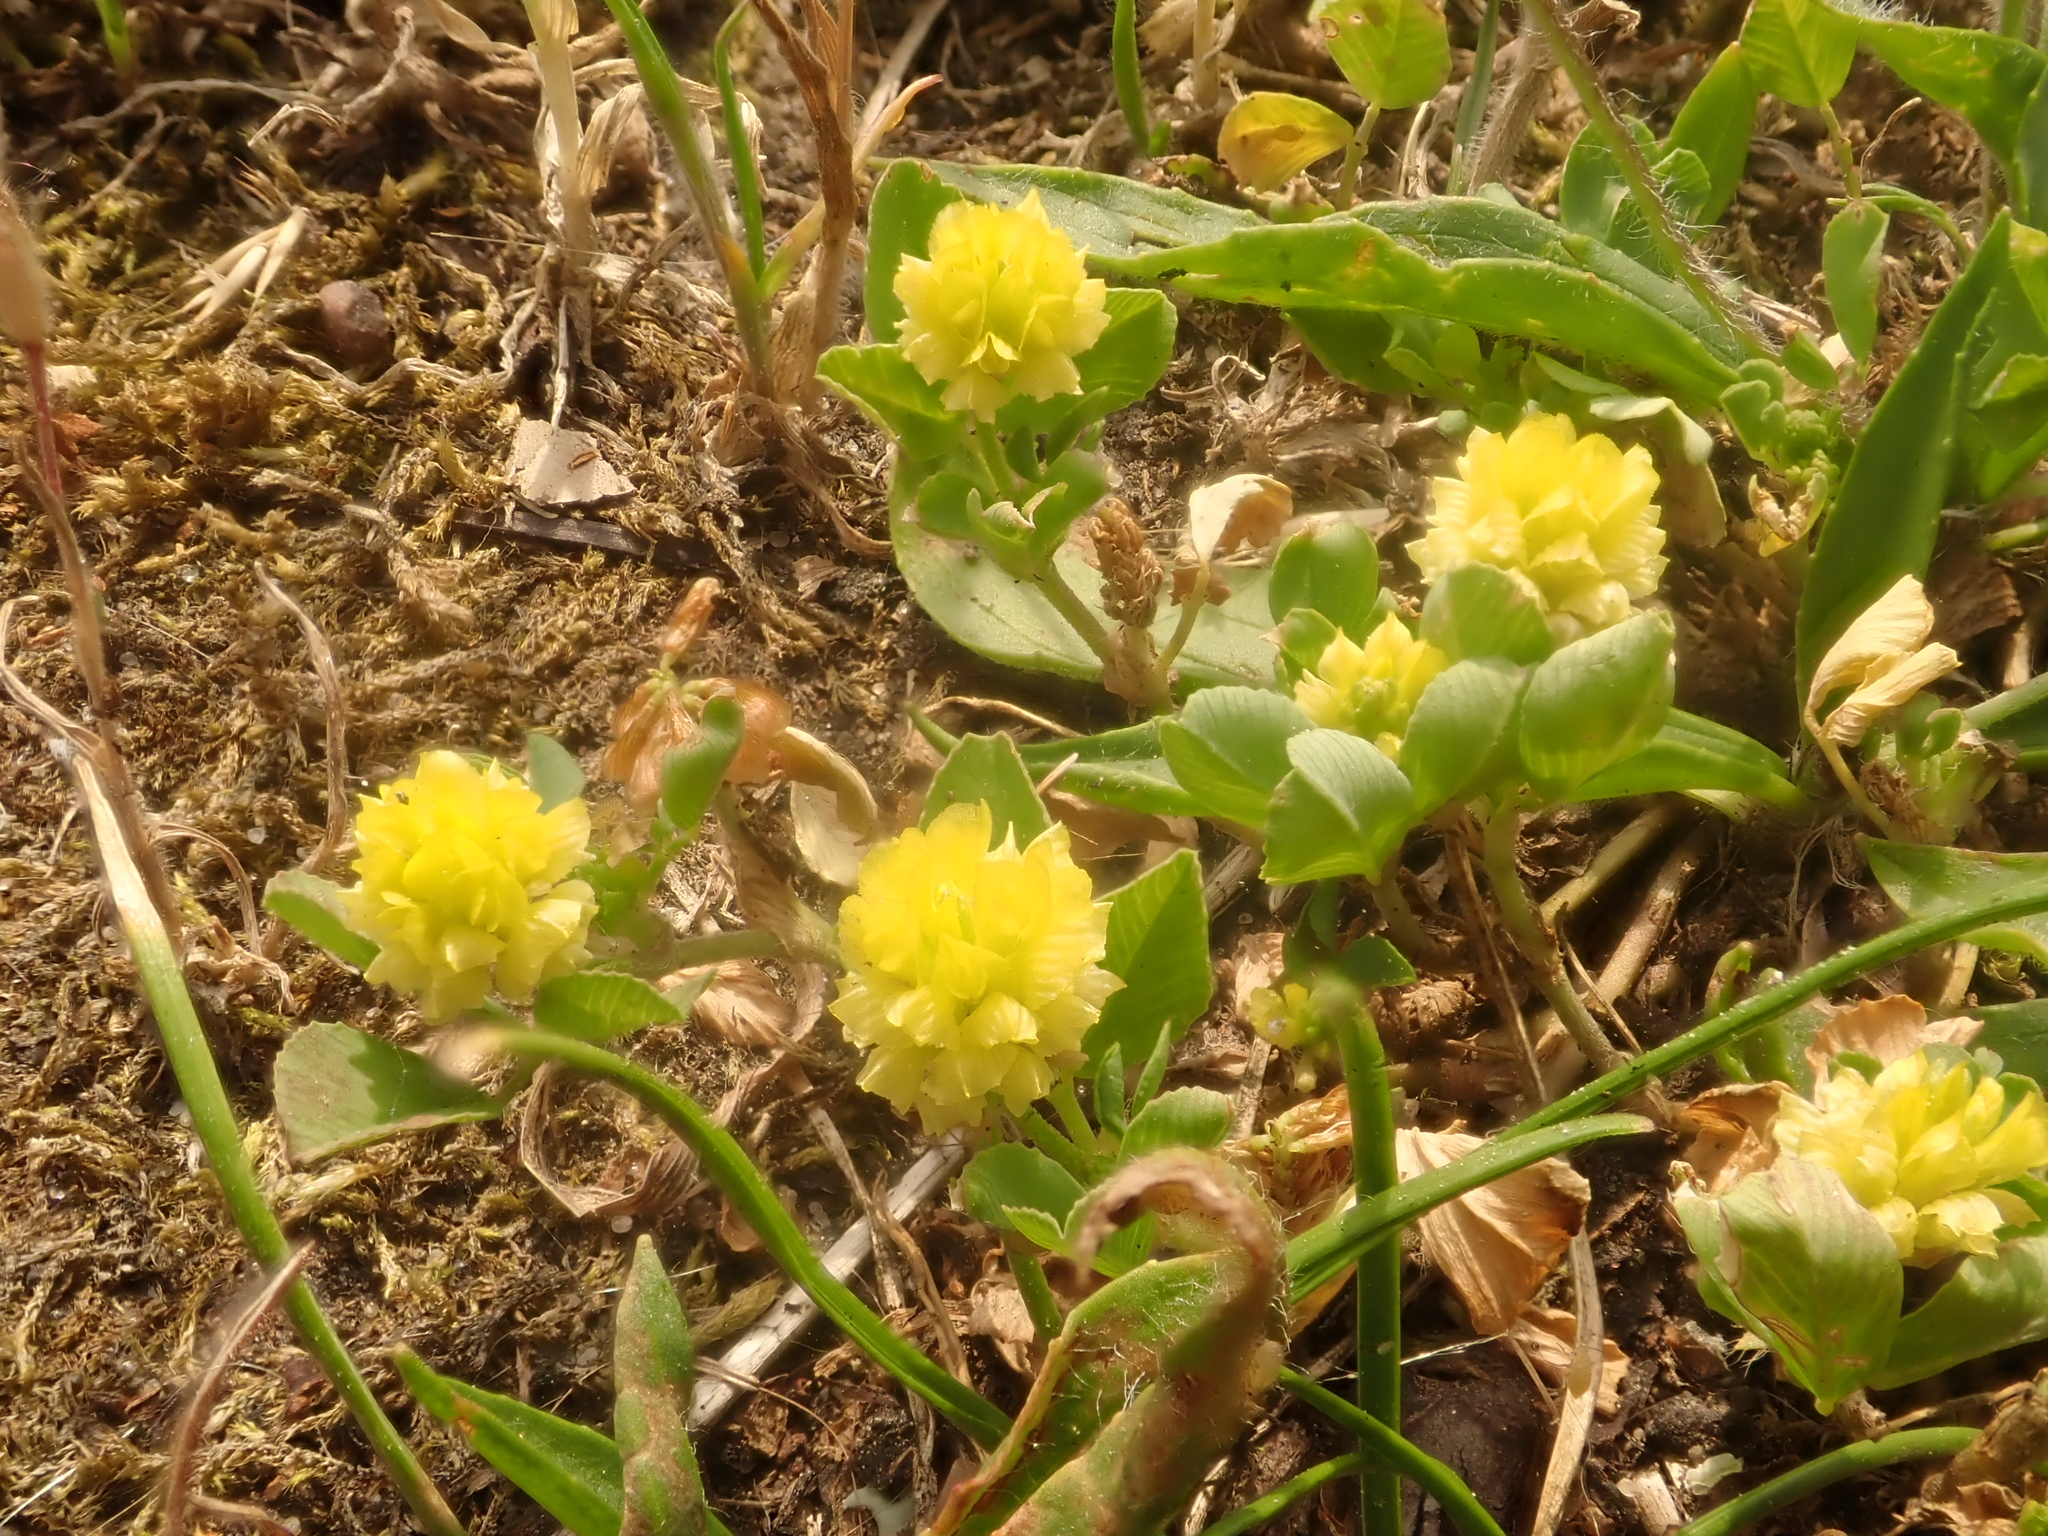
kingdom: Plantae
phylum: Tracheophyta
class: Magnoliopsida
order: Fabales
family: Fabaceae
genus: Trifolium
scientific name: Trifolium campestre
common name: Field clover
